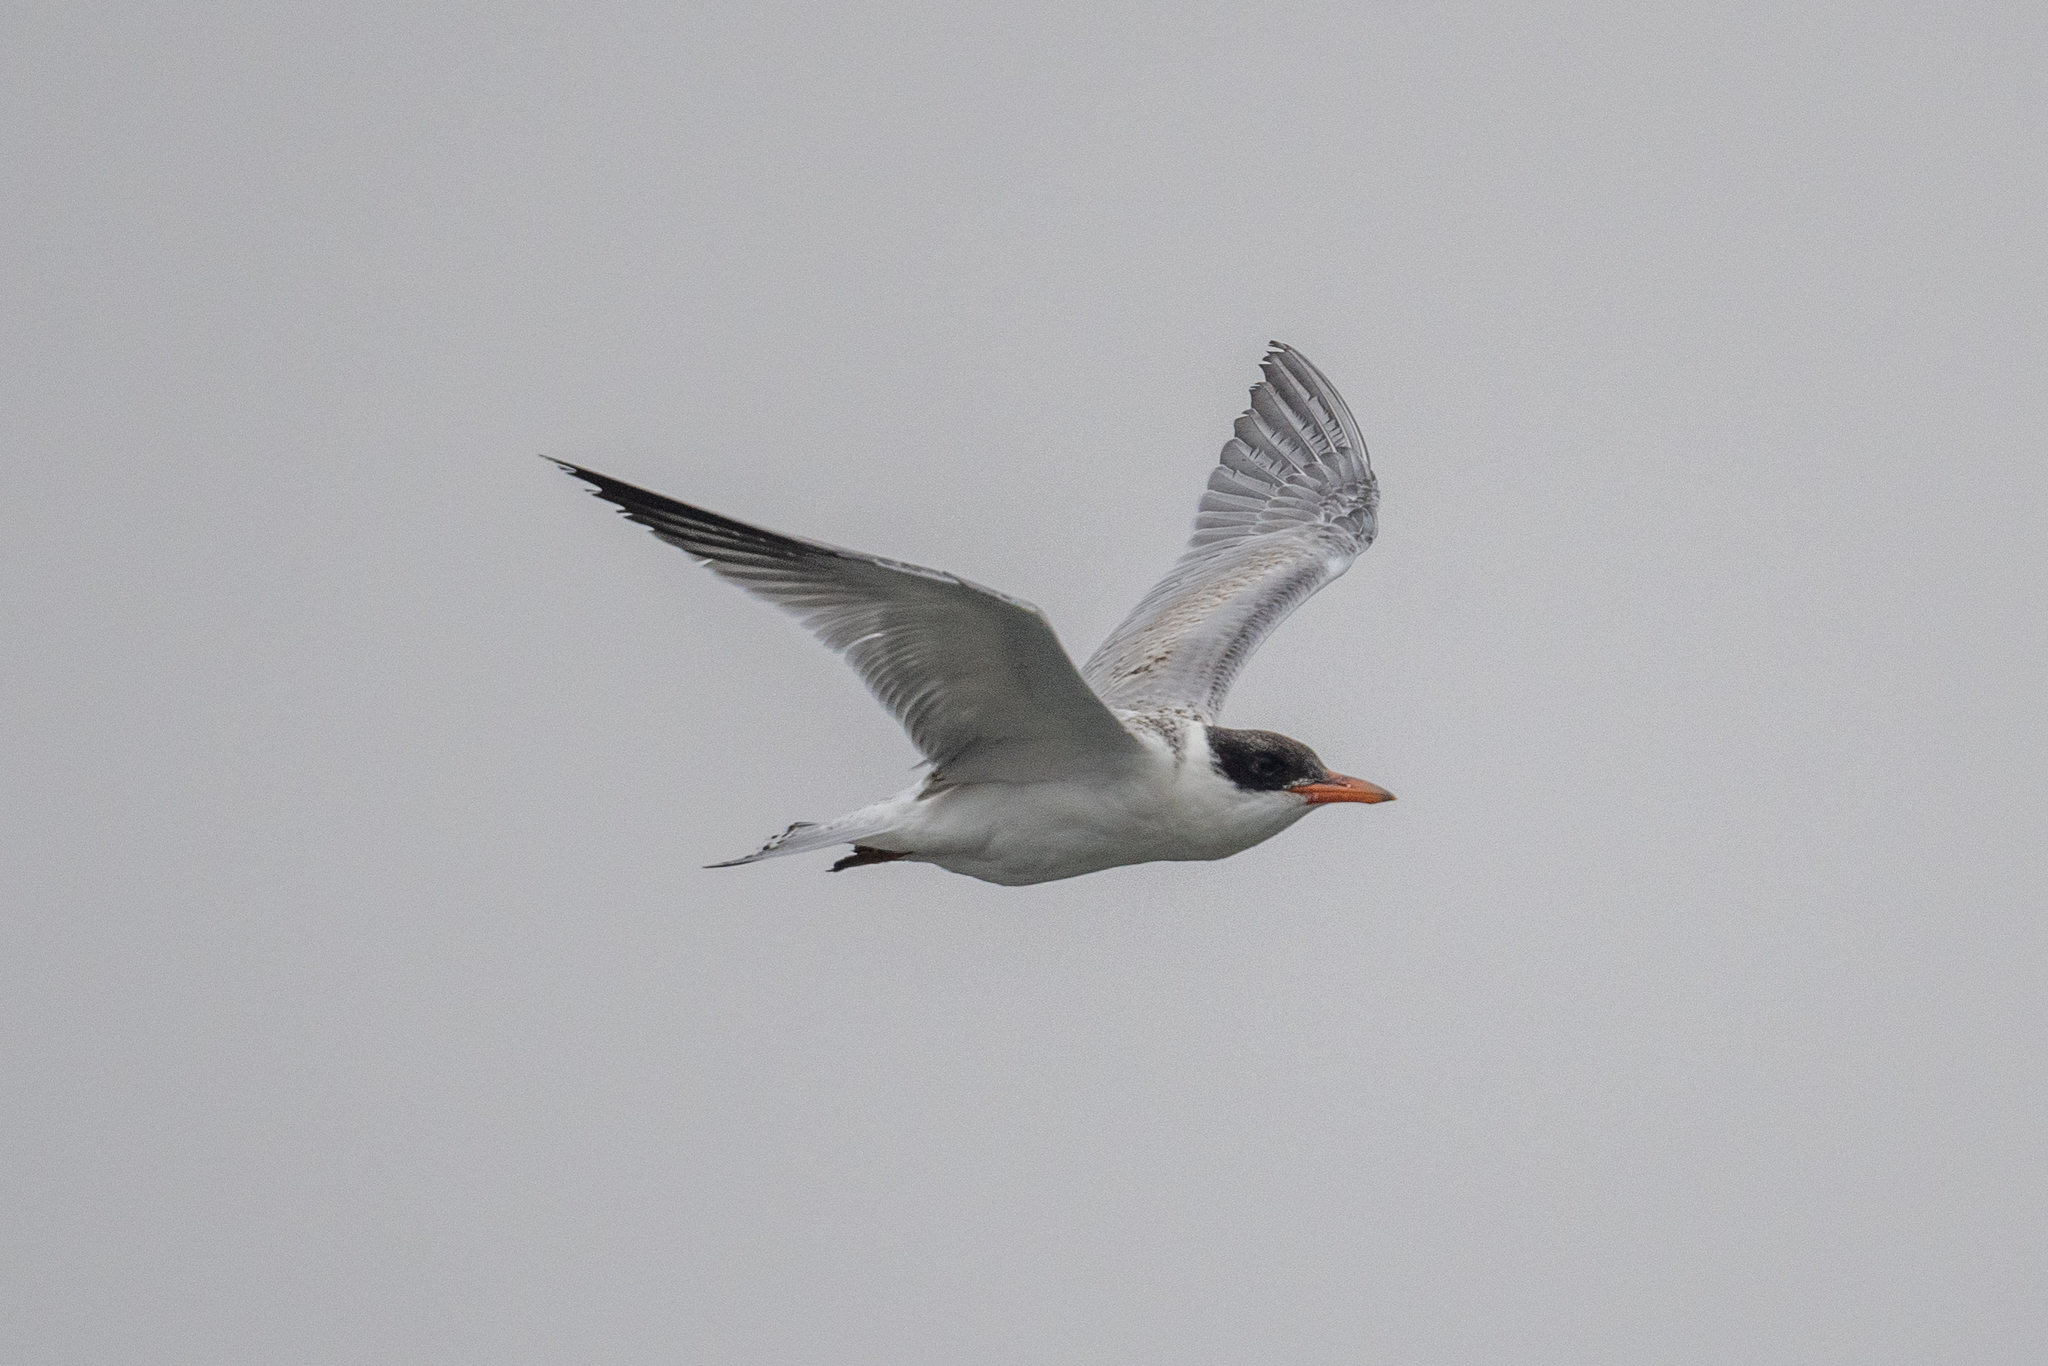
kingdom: Animalia
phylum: Chordata
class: Aves
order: Charadriiformes
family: Laridae
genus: Hydroprogne
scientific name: Hydroprogne caspia
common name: Caspian tern
